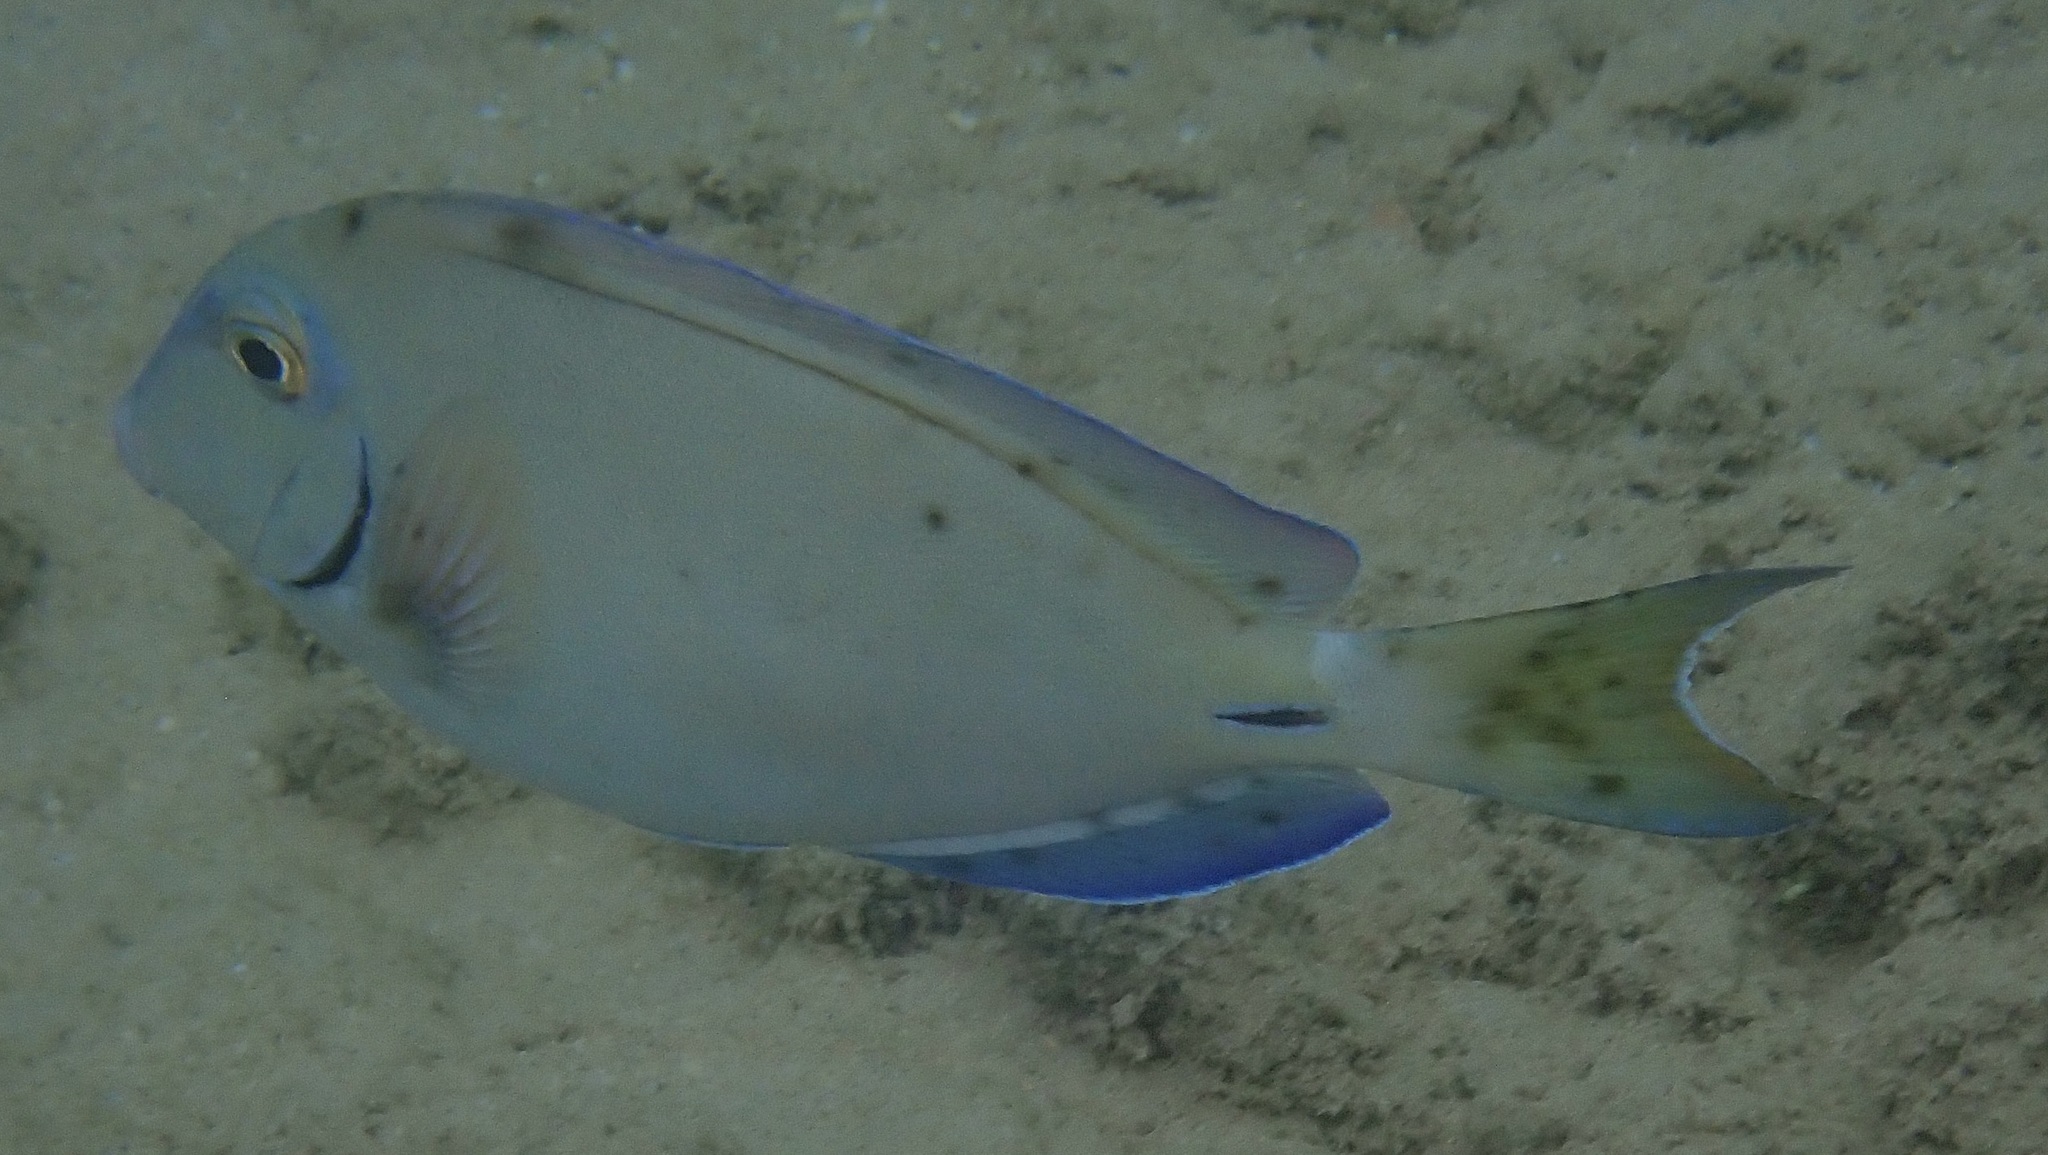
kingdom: Animalia
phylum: Chordata
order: Perciformes
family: Acanthuridae
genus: Acanthurus
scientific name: Acanthurus bahianus
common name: Ocean surgeon
